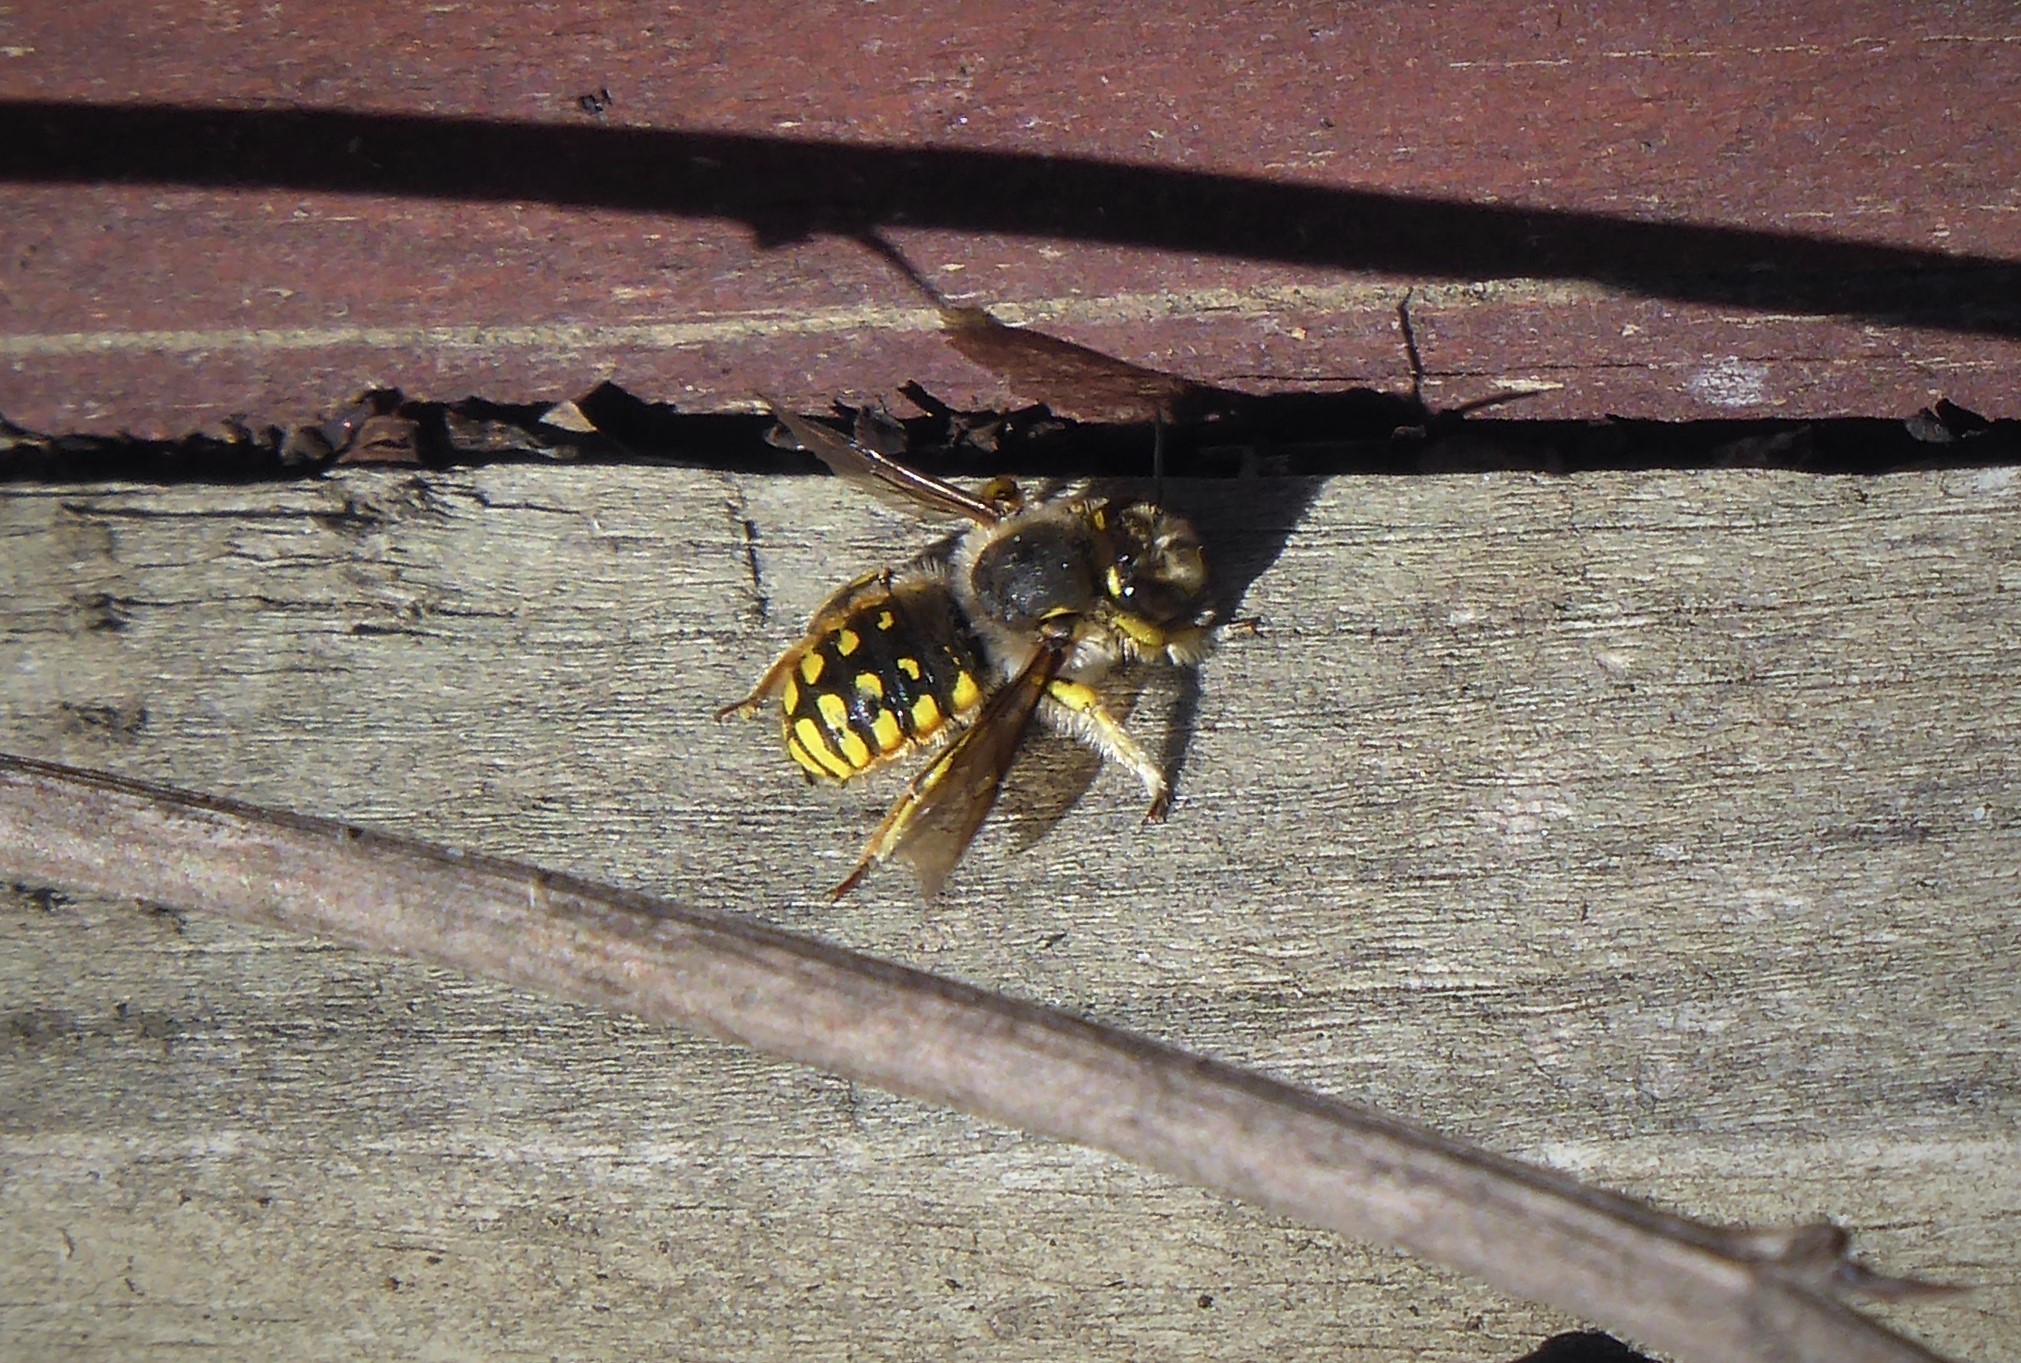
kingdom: Animalia
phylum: Arthropoda
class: Insecta
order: Hymenoptera
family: Megachilidae
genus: Anthidium
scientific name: Anthidium manicatum
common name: Wool carder bee
